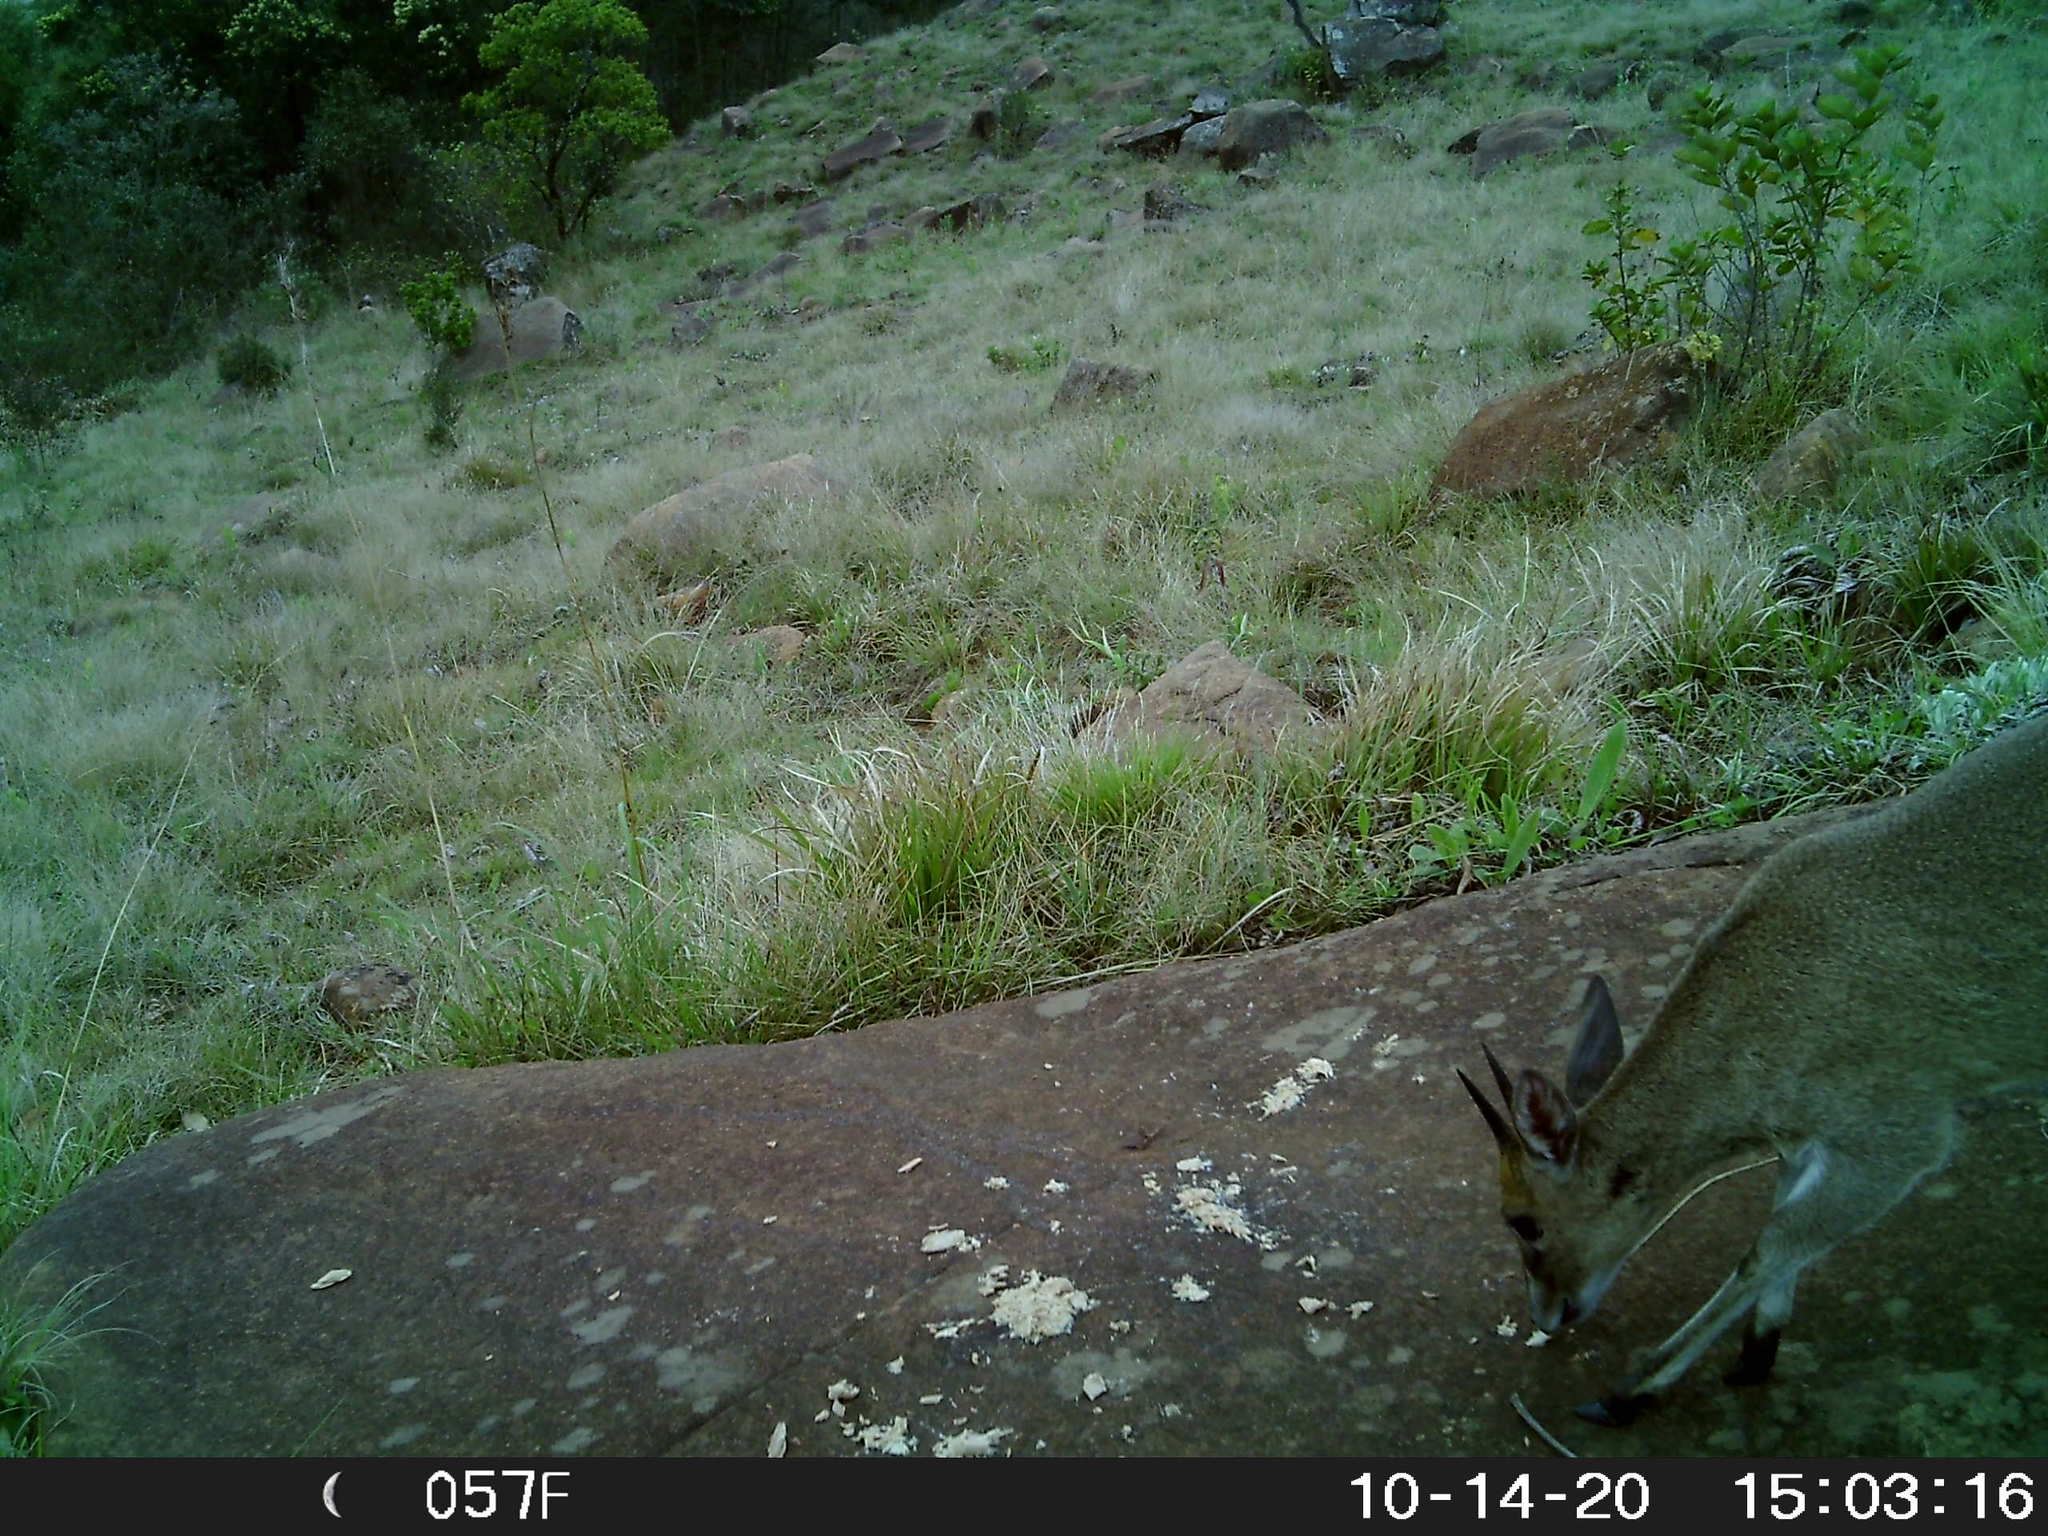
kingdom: Animalia
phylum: Chordata
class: Mammalia
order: Artiodactyla
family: Bovidae
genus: Oreotragus
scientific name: Oreotragus oreotragus
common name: Klipspringer
